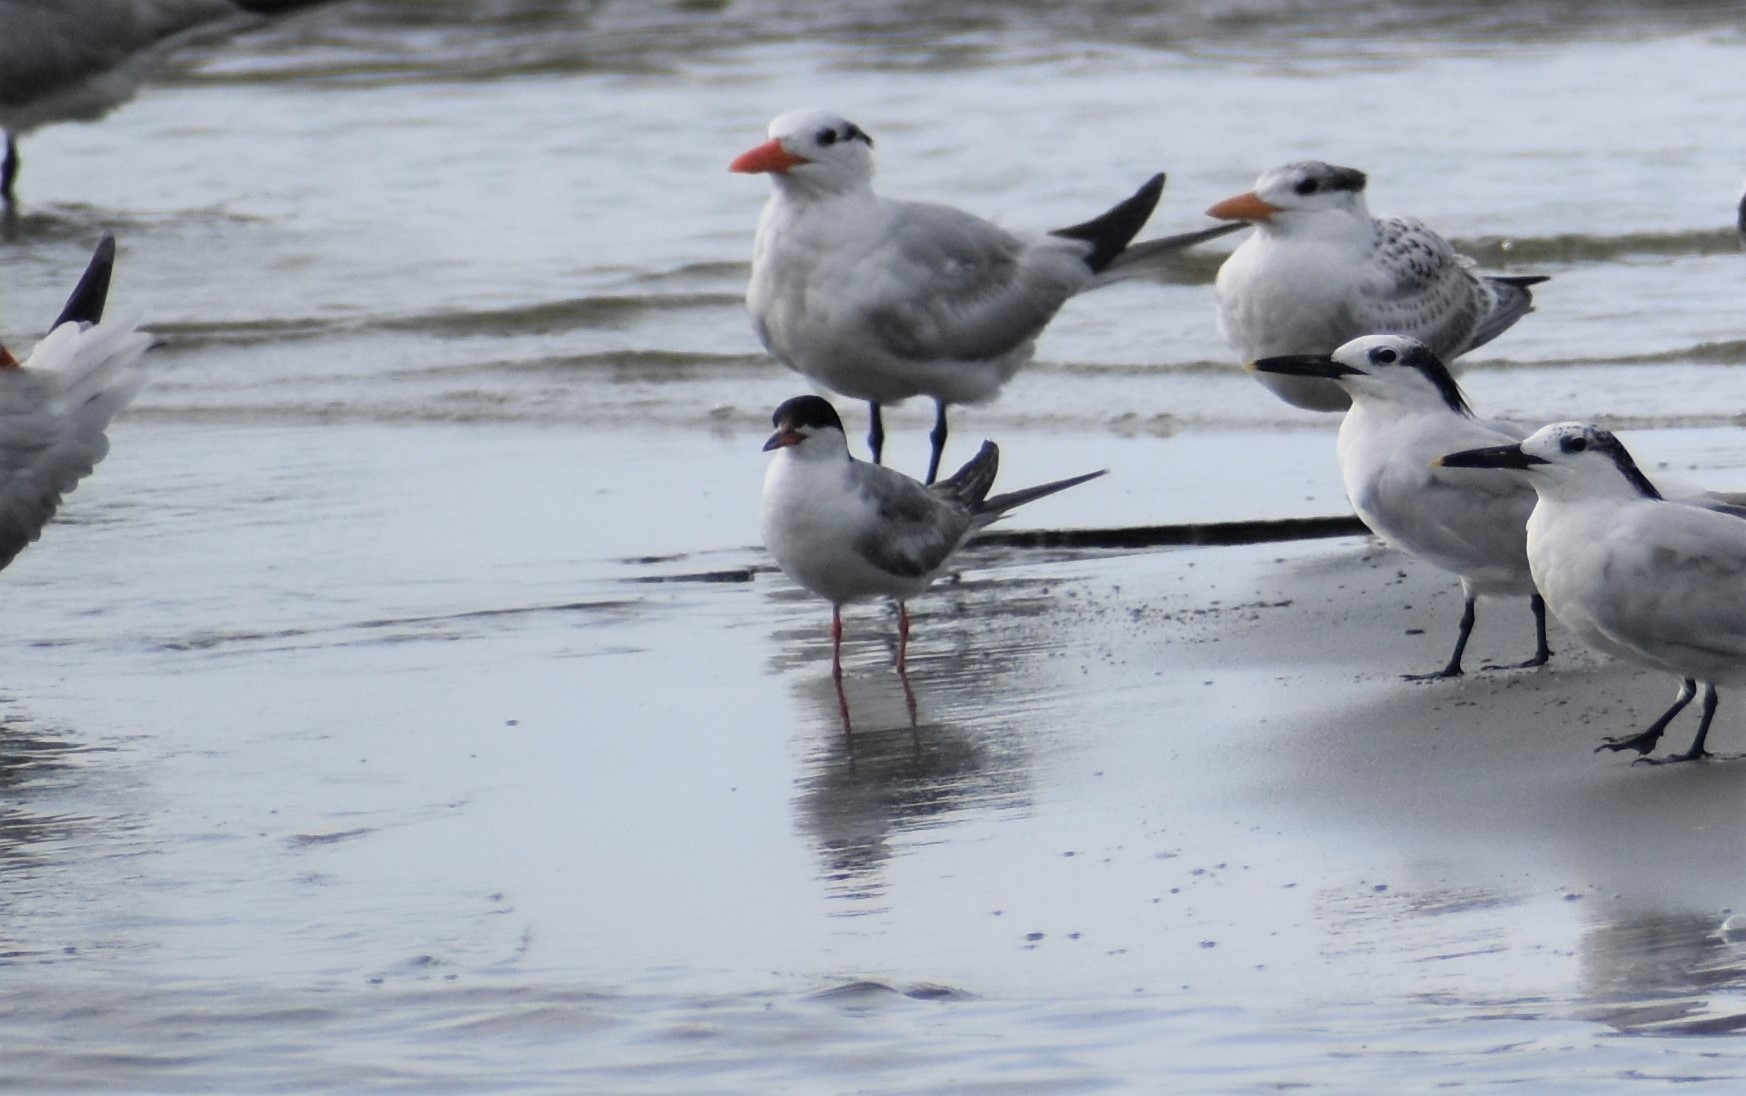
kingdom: Animalia
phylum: Chordata
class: Aves
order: Charadriiformes
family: Laridae
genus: Sterna
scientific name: Sterna forsteri
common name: Forster's tern
